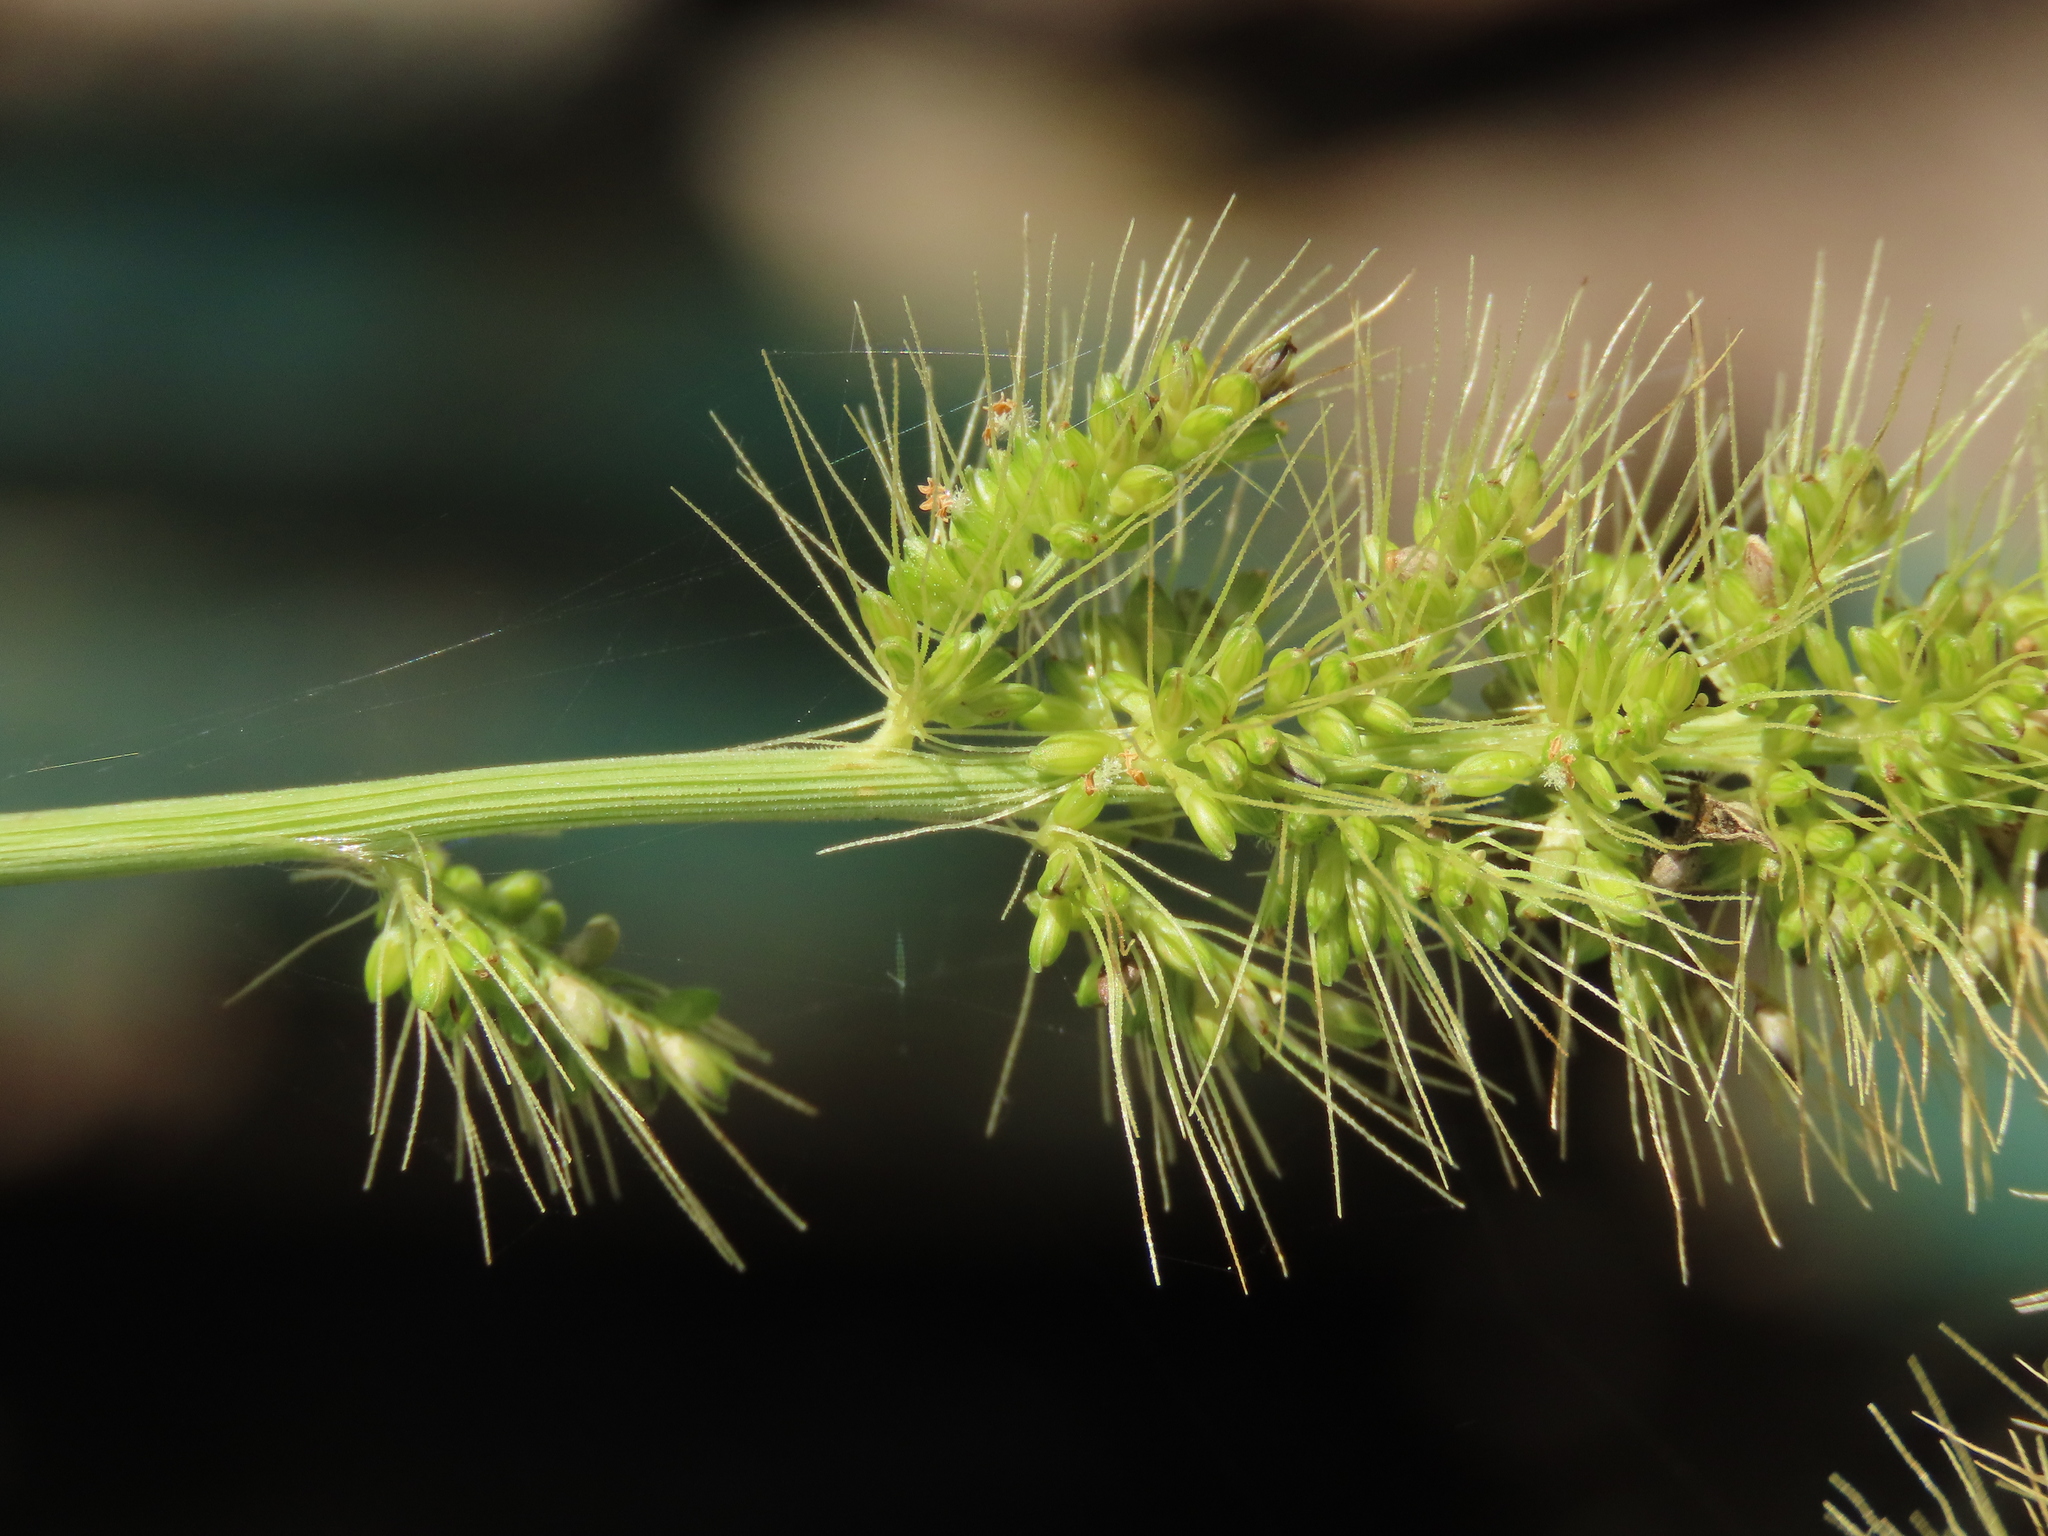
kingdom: Plantae
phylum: Tracheophyta
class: Liliopsida
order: Poales
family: Poaceae
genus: Setaria
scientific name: Setaria verticillata
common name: Hooked bristlegrass
